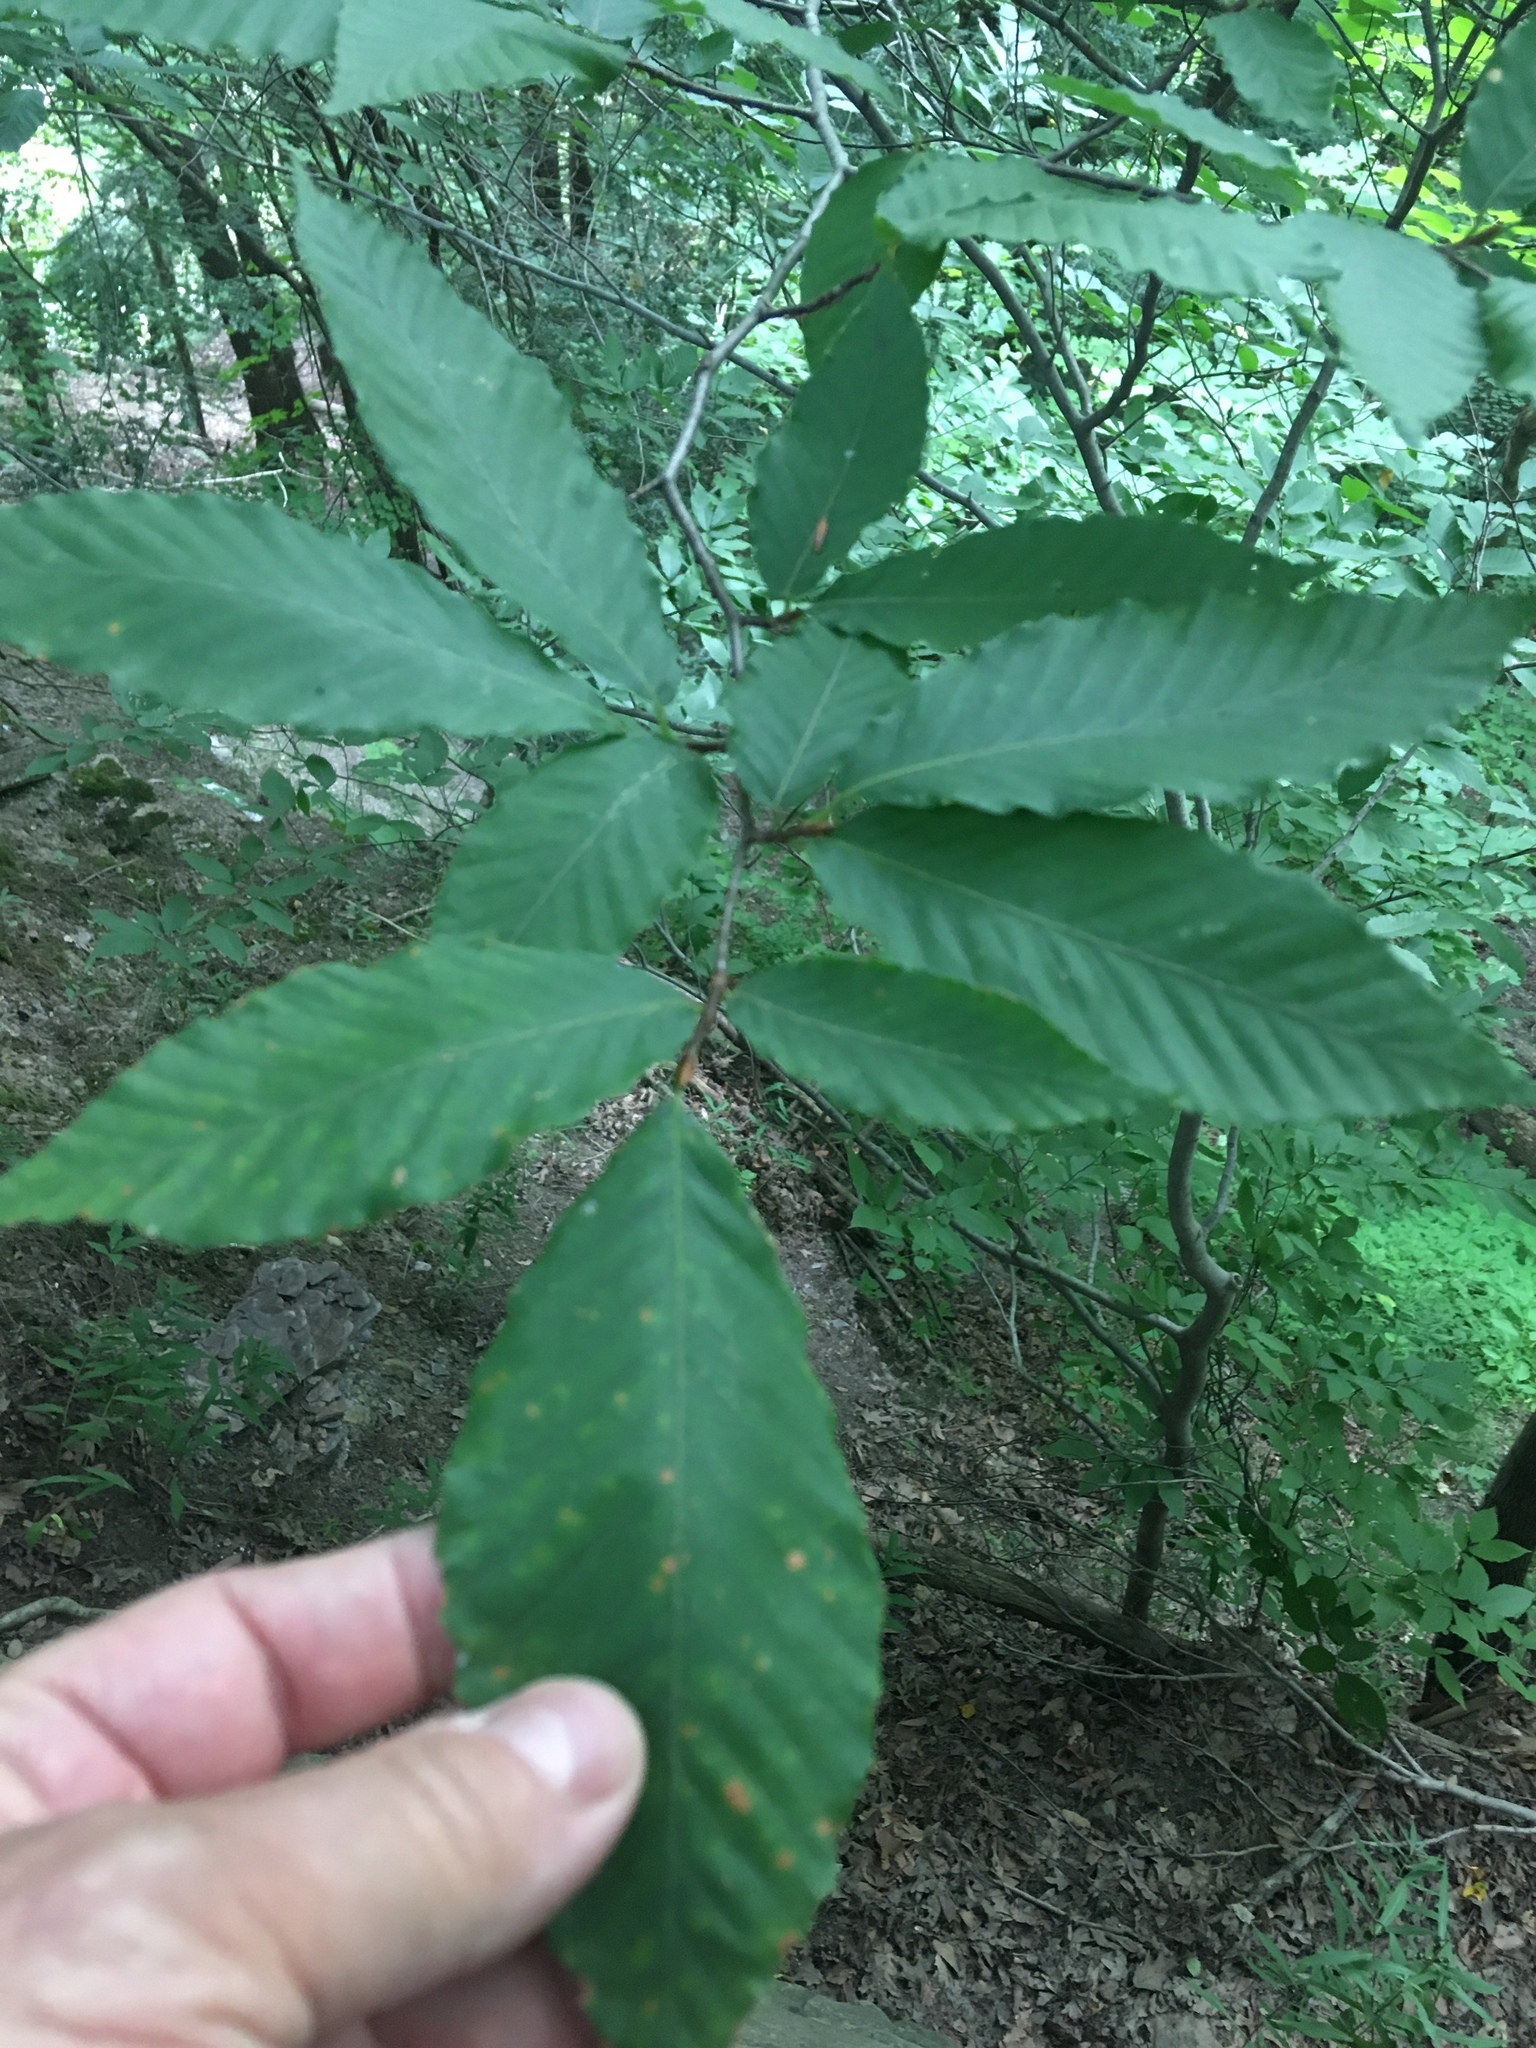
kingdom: Plantae
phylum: Tracheophyta
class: Magnoliopsida
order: Fagales
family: Fagaceae
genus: Fagus
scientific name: Fagus grandifolia
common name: American beech
